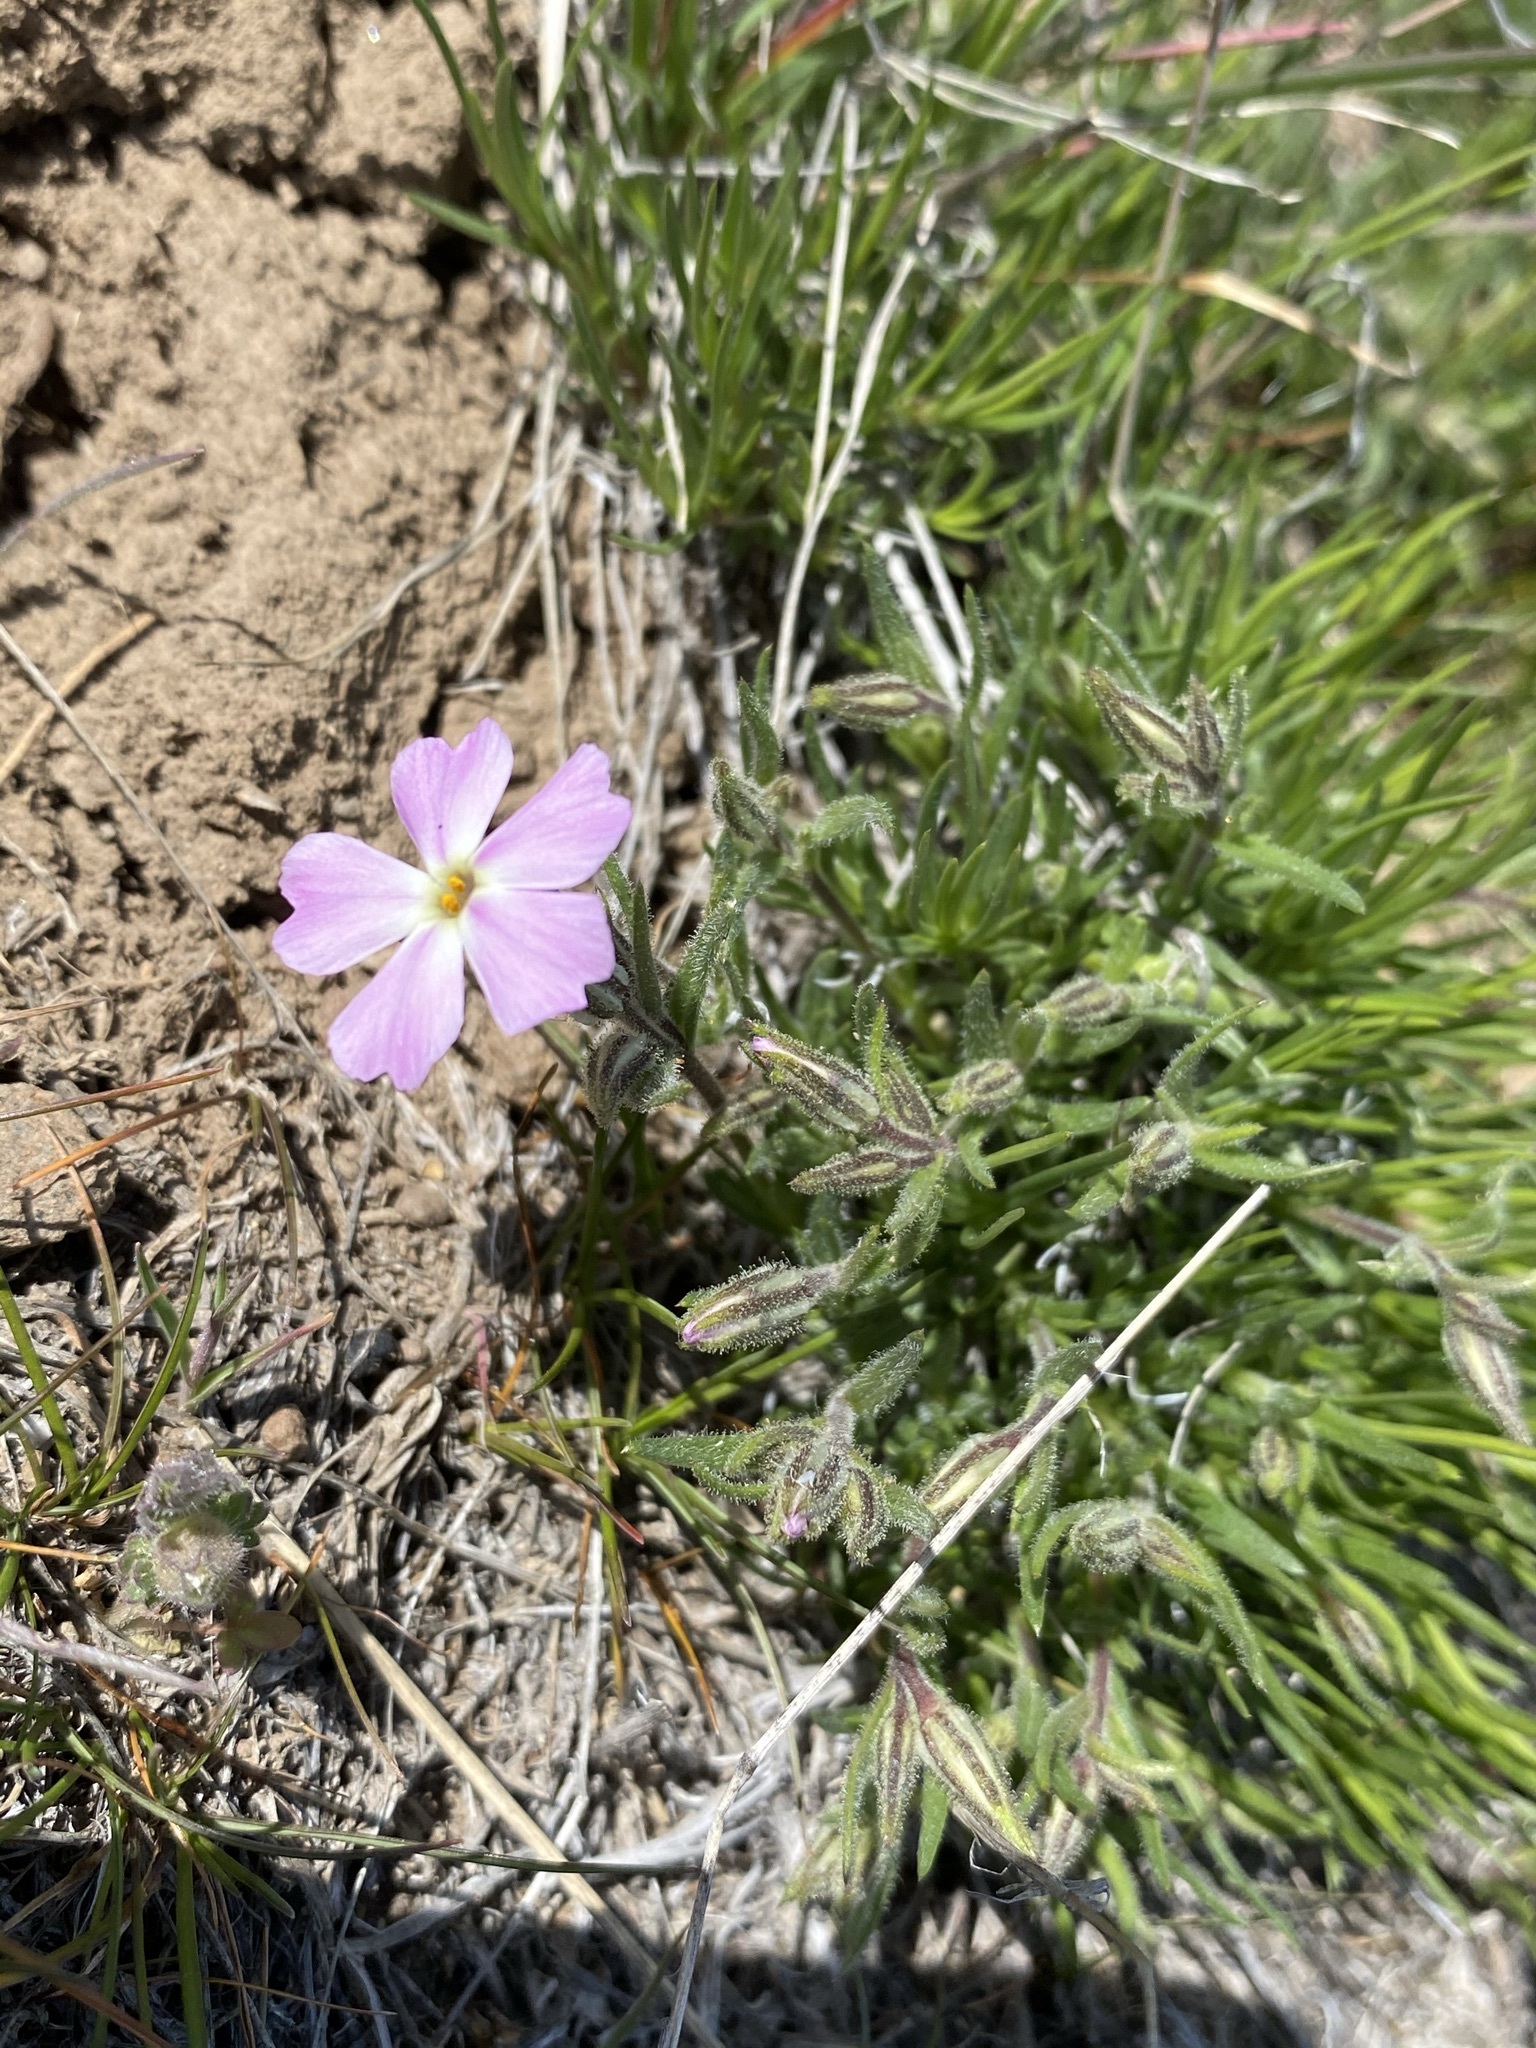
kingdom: Plantae
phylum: Tracheophyta
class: Magnoliopsida
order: Ericales
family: Polemoniaceae
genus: Phlox
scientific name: Phlox speciosa
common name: Bush phlox
